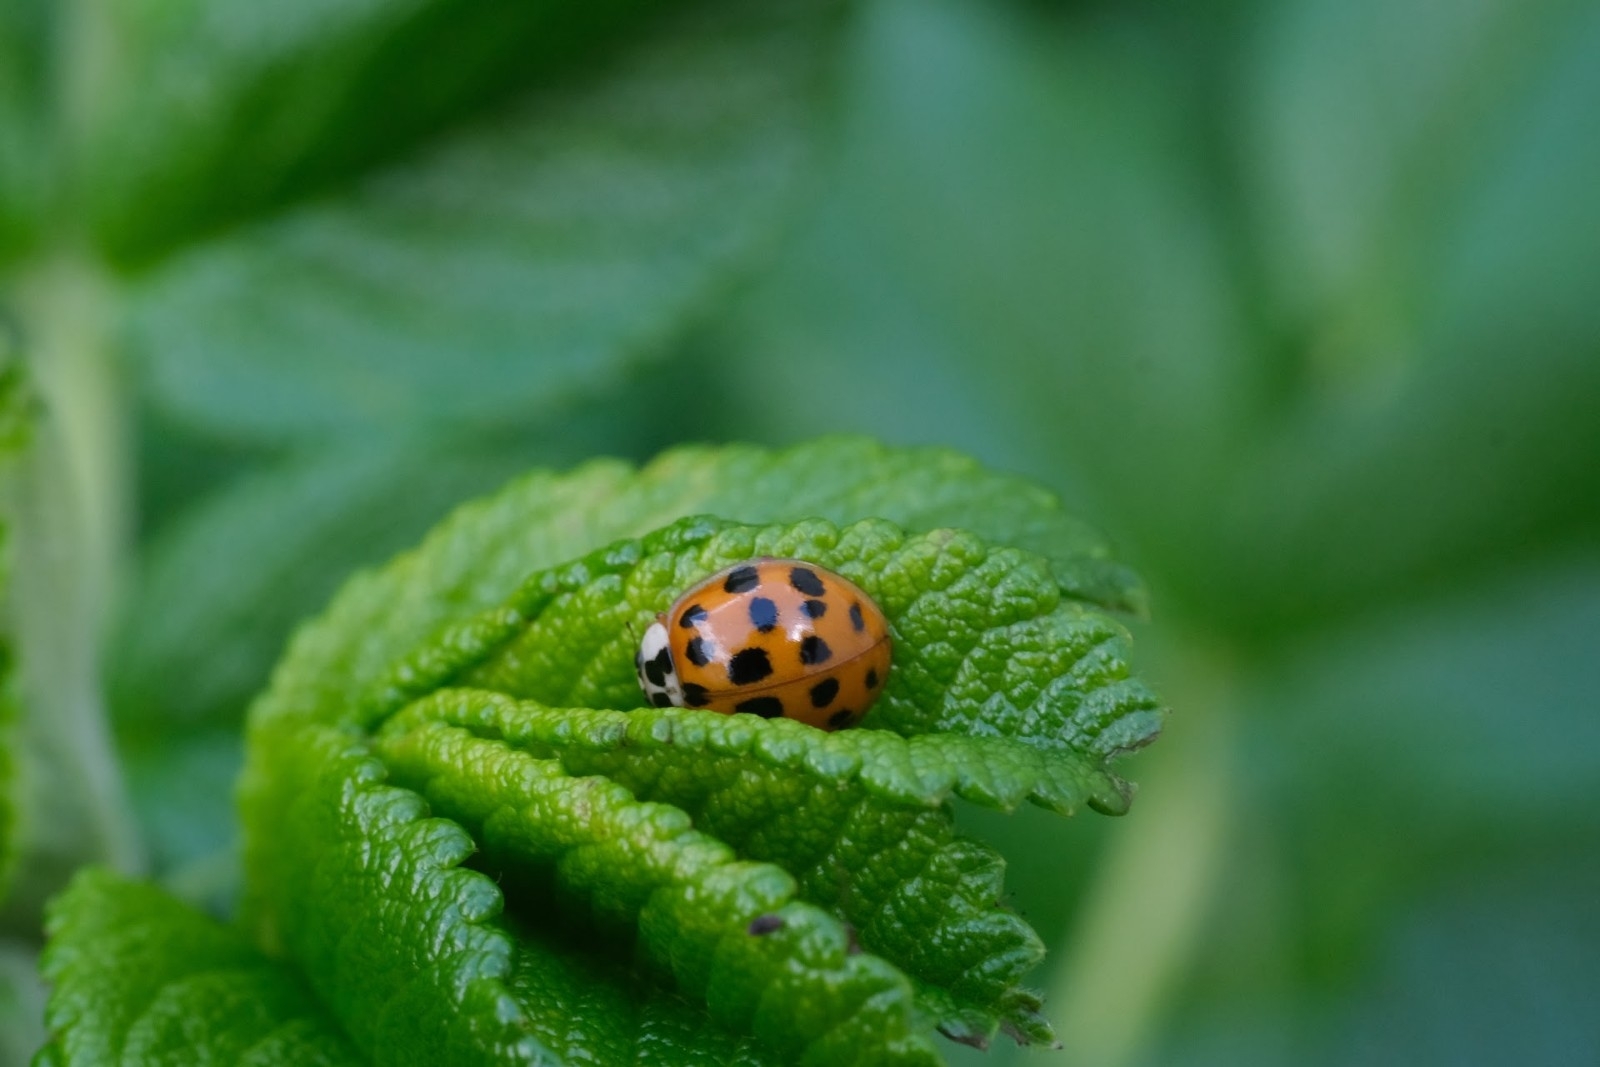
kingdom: Animalia
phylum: Arthropoda
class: Insecta
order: Coleoptera
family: Coccinellidae
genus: Harmonia
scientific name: Harmonia axyridis
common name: Harlequin ladybird
